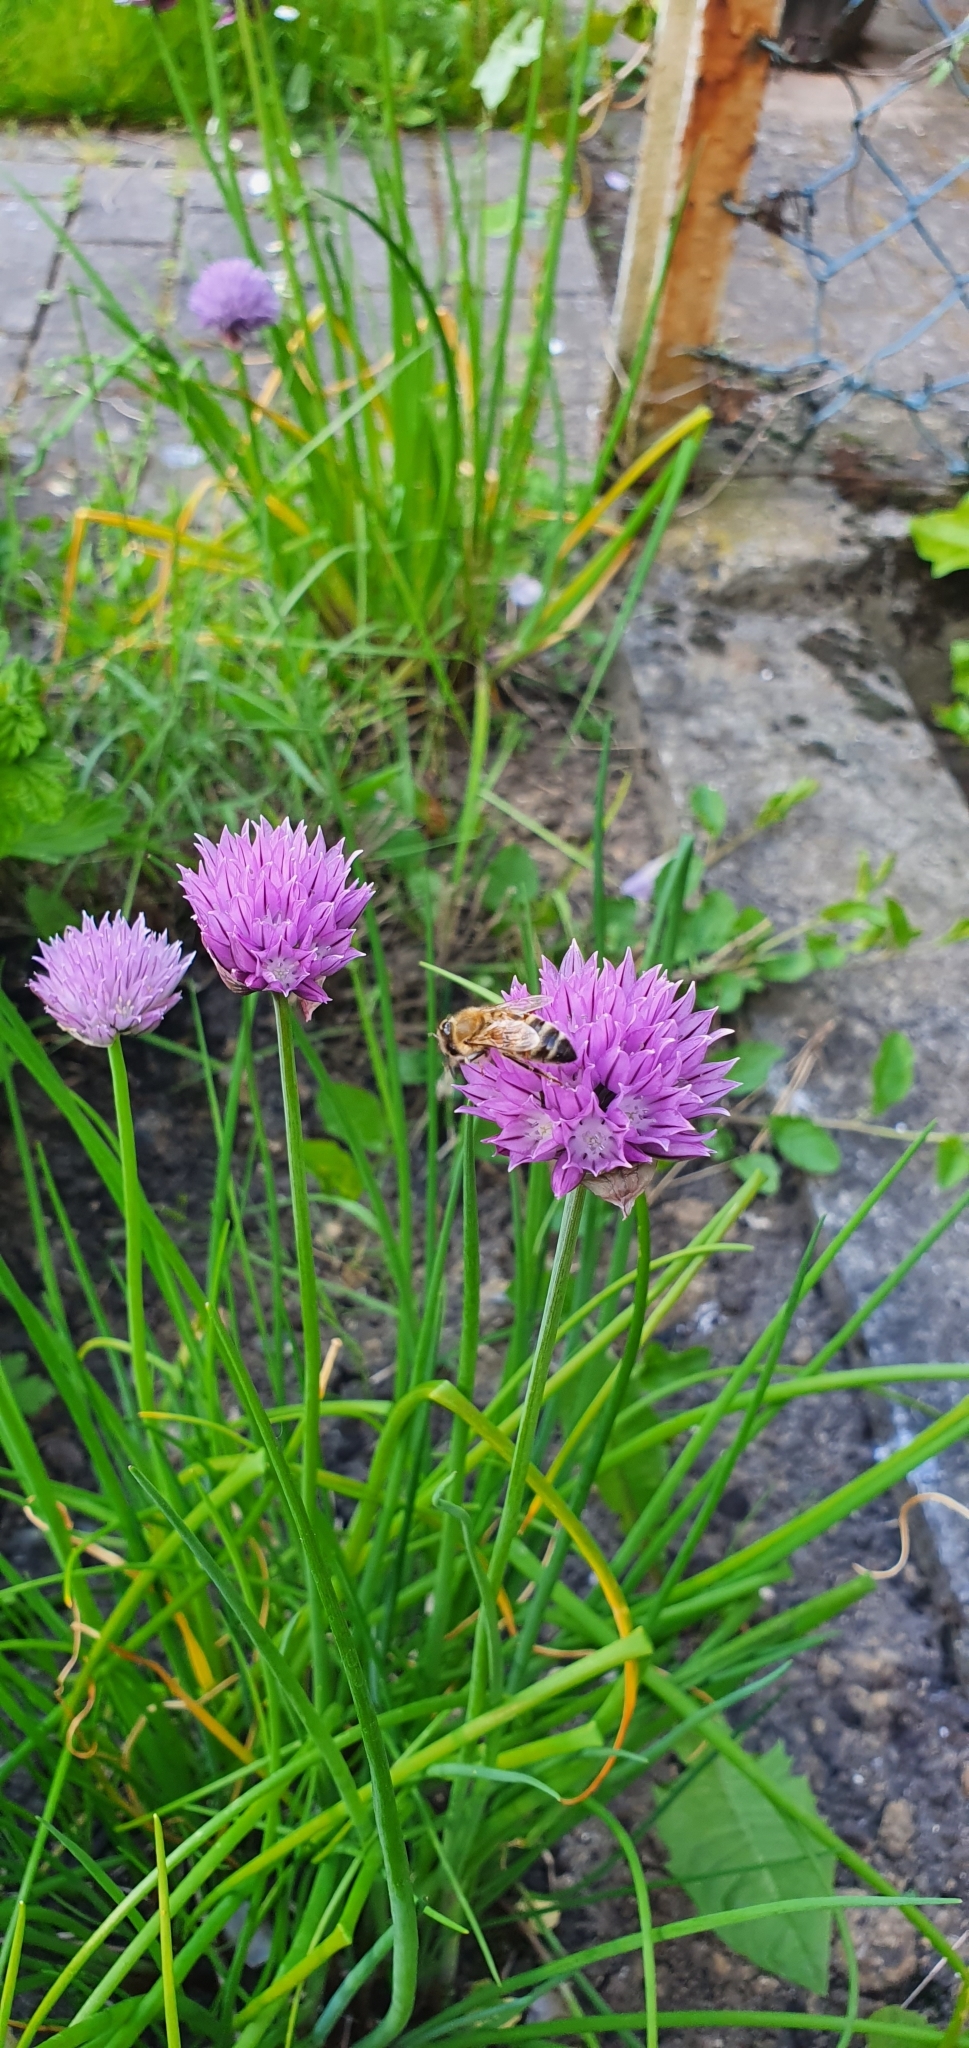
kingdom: Animalia
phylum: Arthropoda
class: Insecta
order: Hymenoptera
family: Apidae
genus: Apis
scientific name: Apis mellifera
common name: Honey bee
